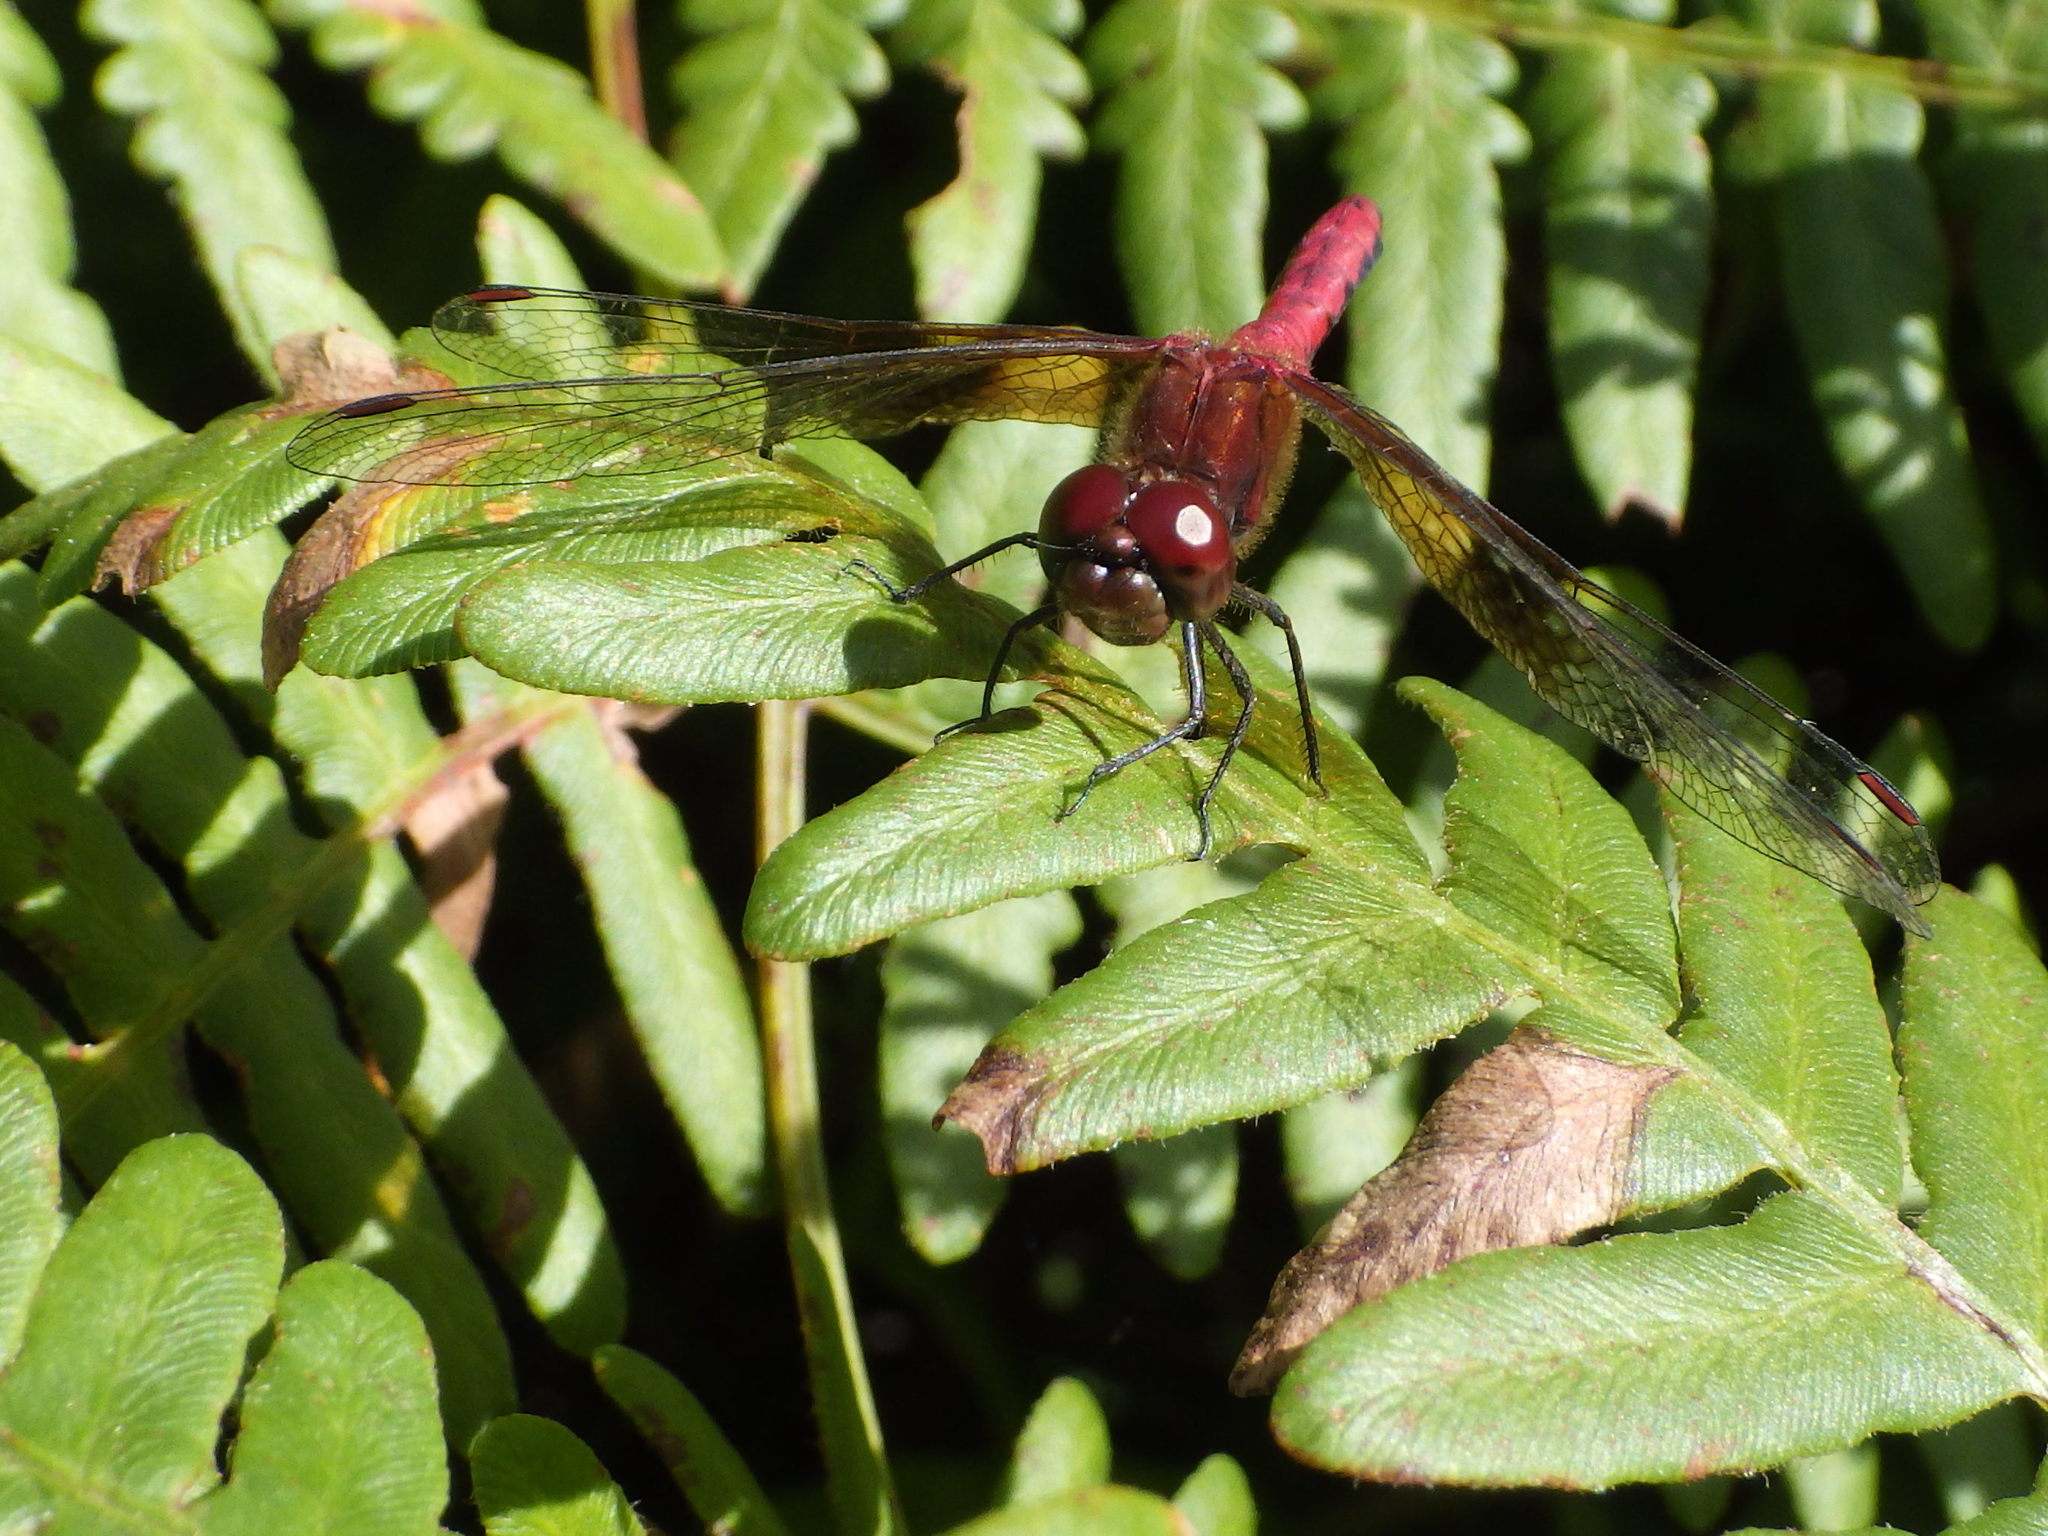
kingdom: Animalia
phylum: Arthropoda
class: Insecta
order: Odonata
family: Libellulidae
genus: Sympetrum
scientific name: Sympetrum semicinctum
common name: Band-winged meadowhawk
